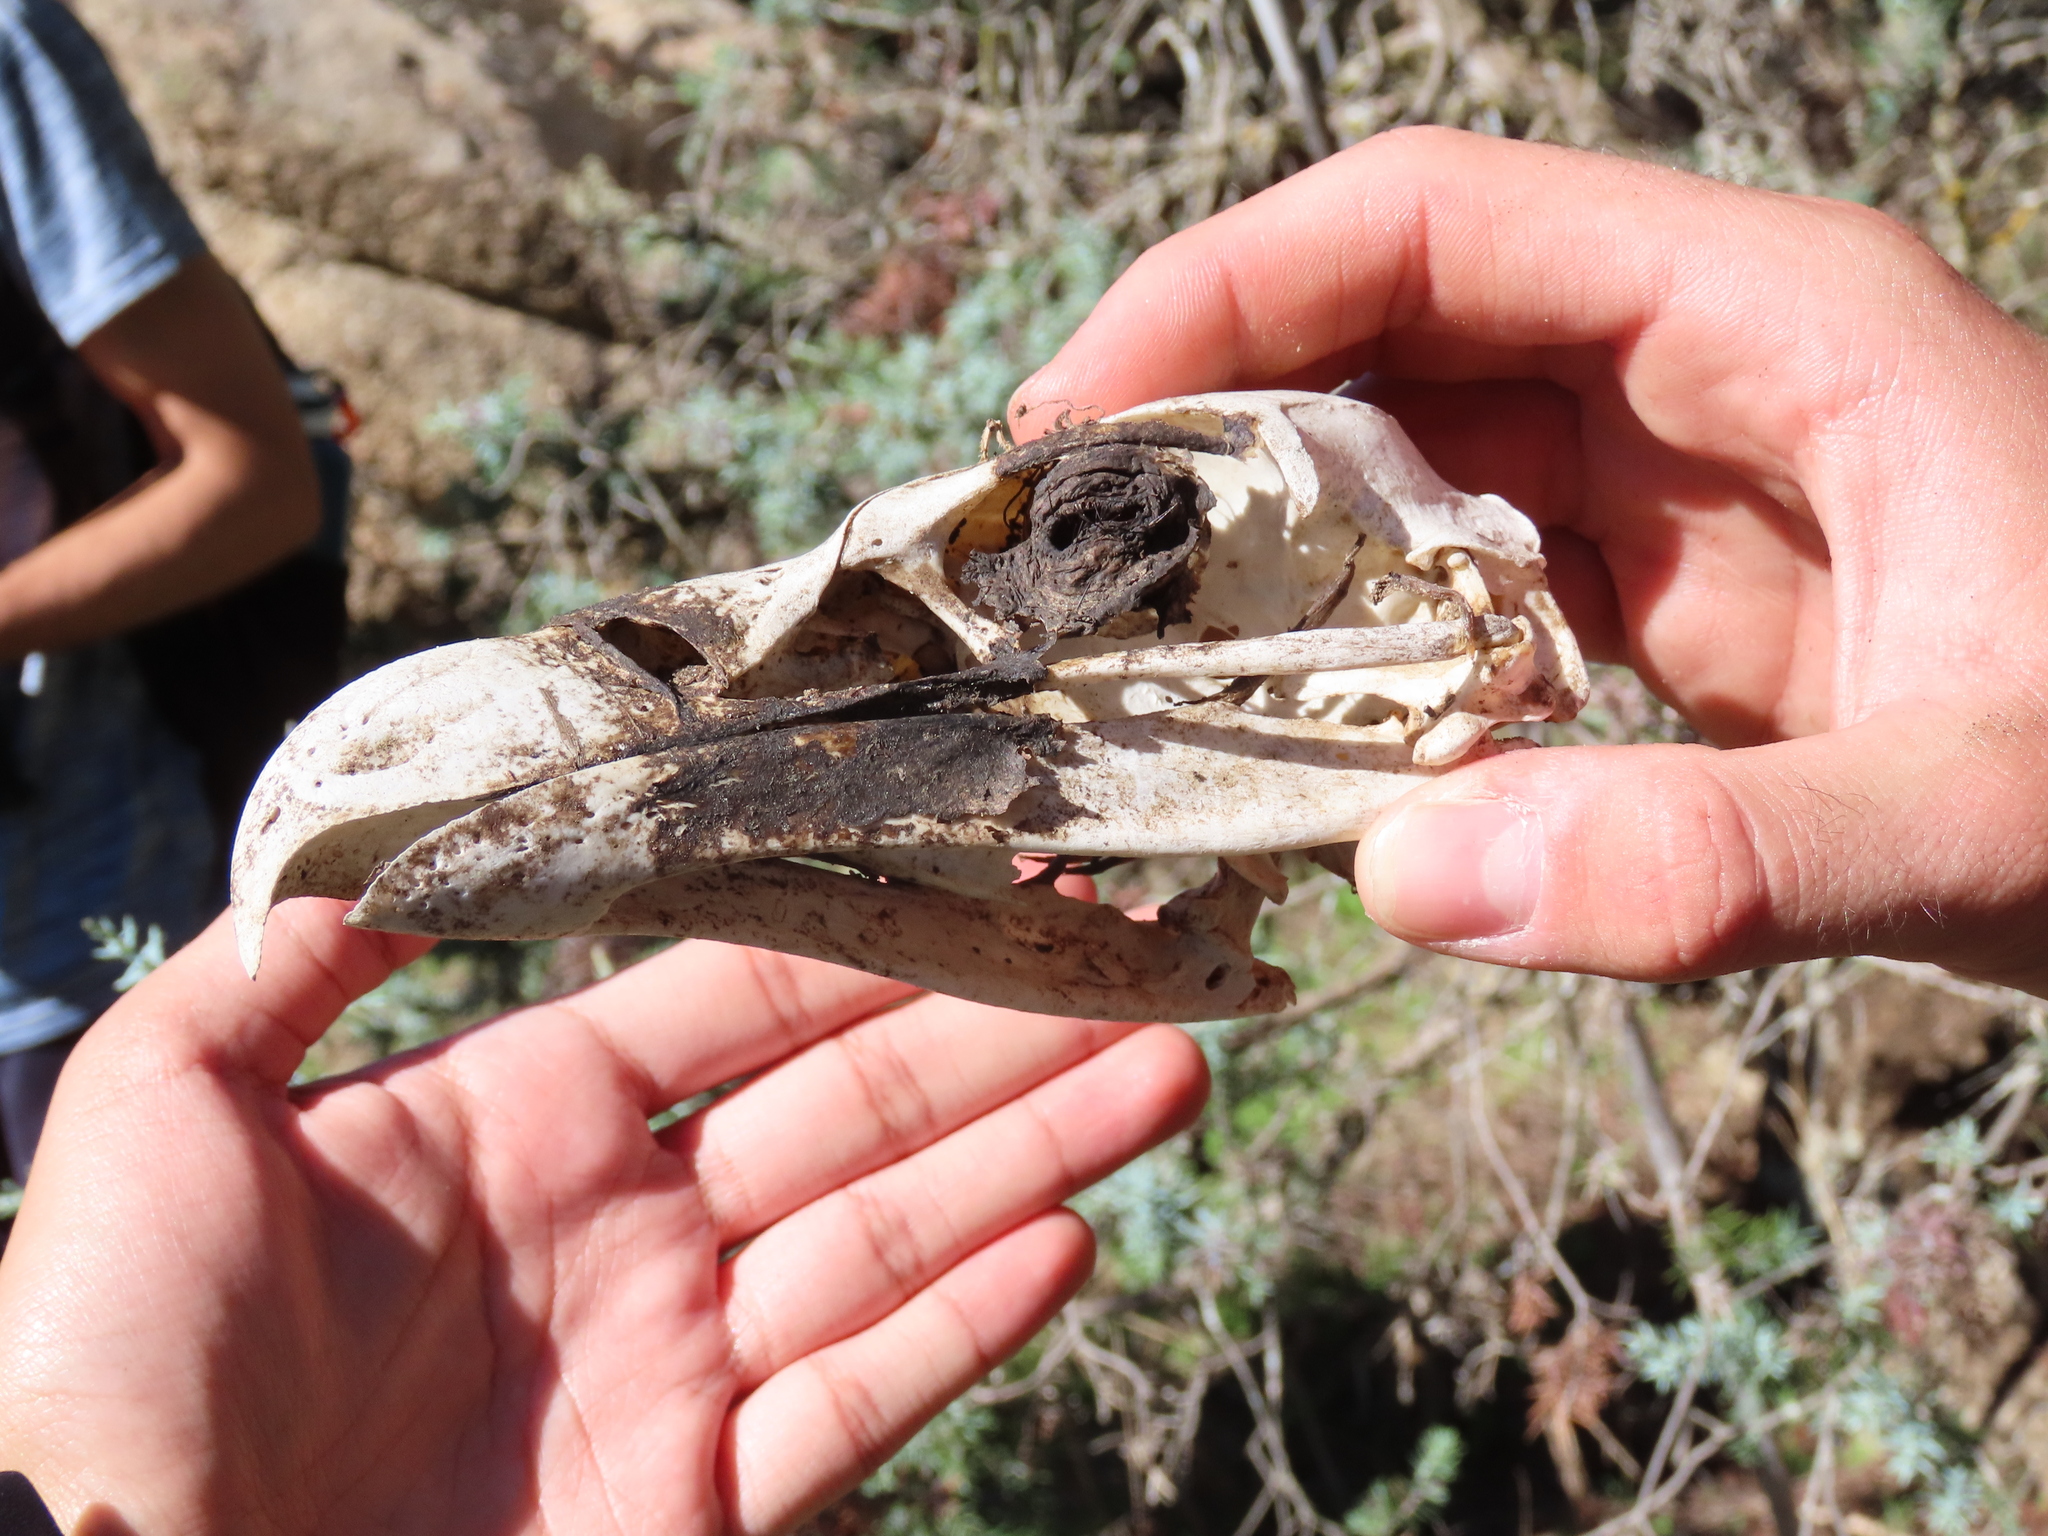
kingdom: Animalia
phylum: Chordata
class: Aves
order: Accipitriformes
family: Accipitridae
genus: Gyps
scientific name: Gyps fulvus
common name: Griffon vulture
